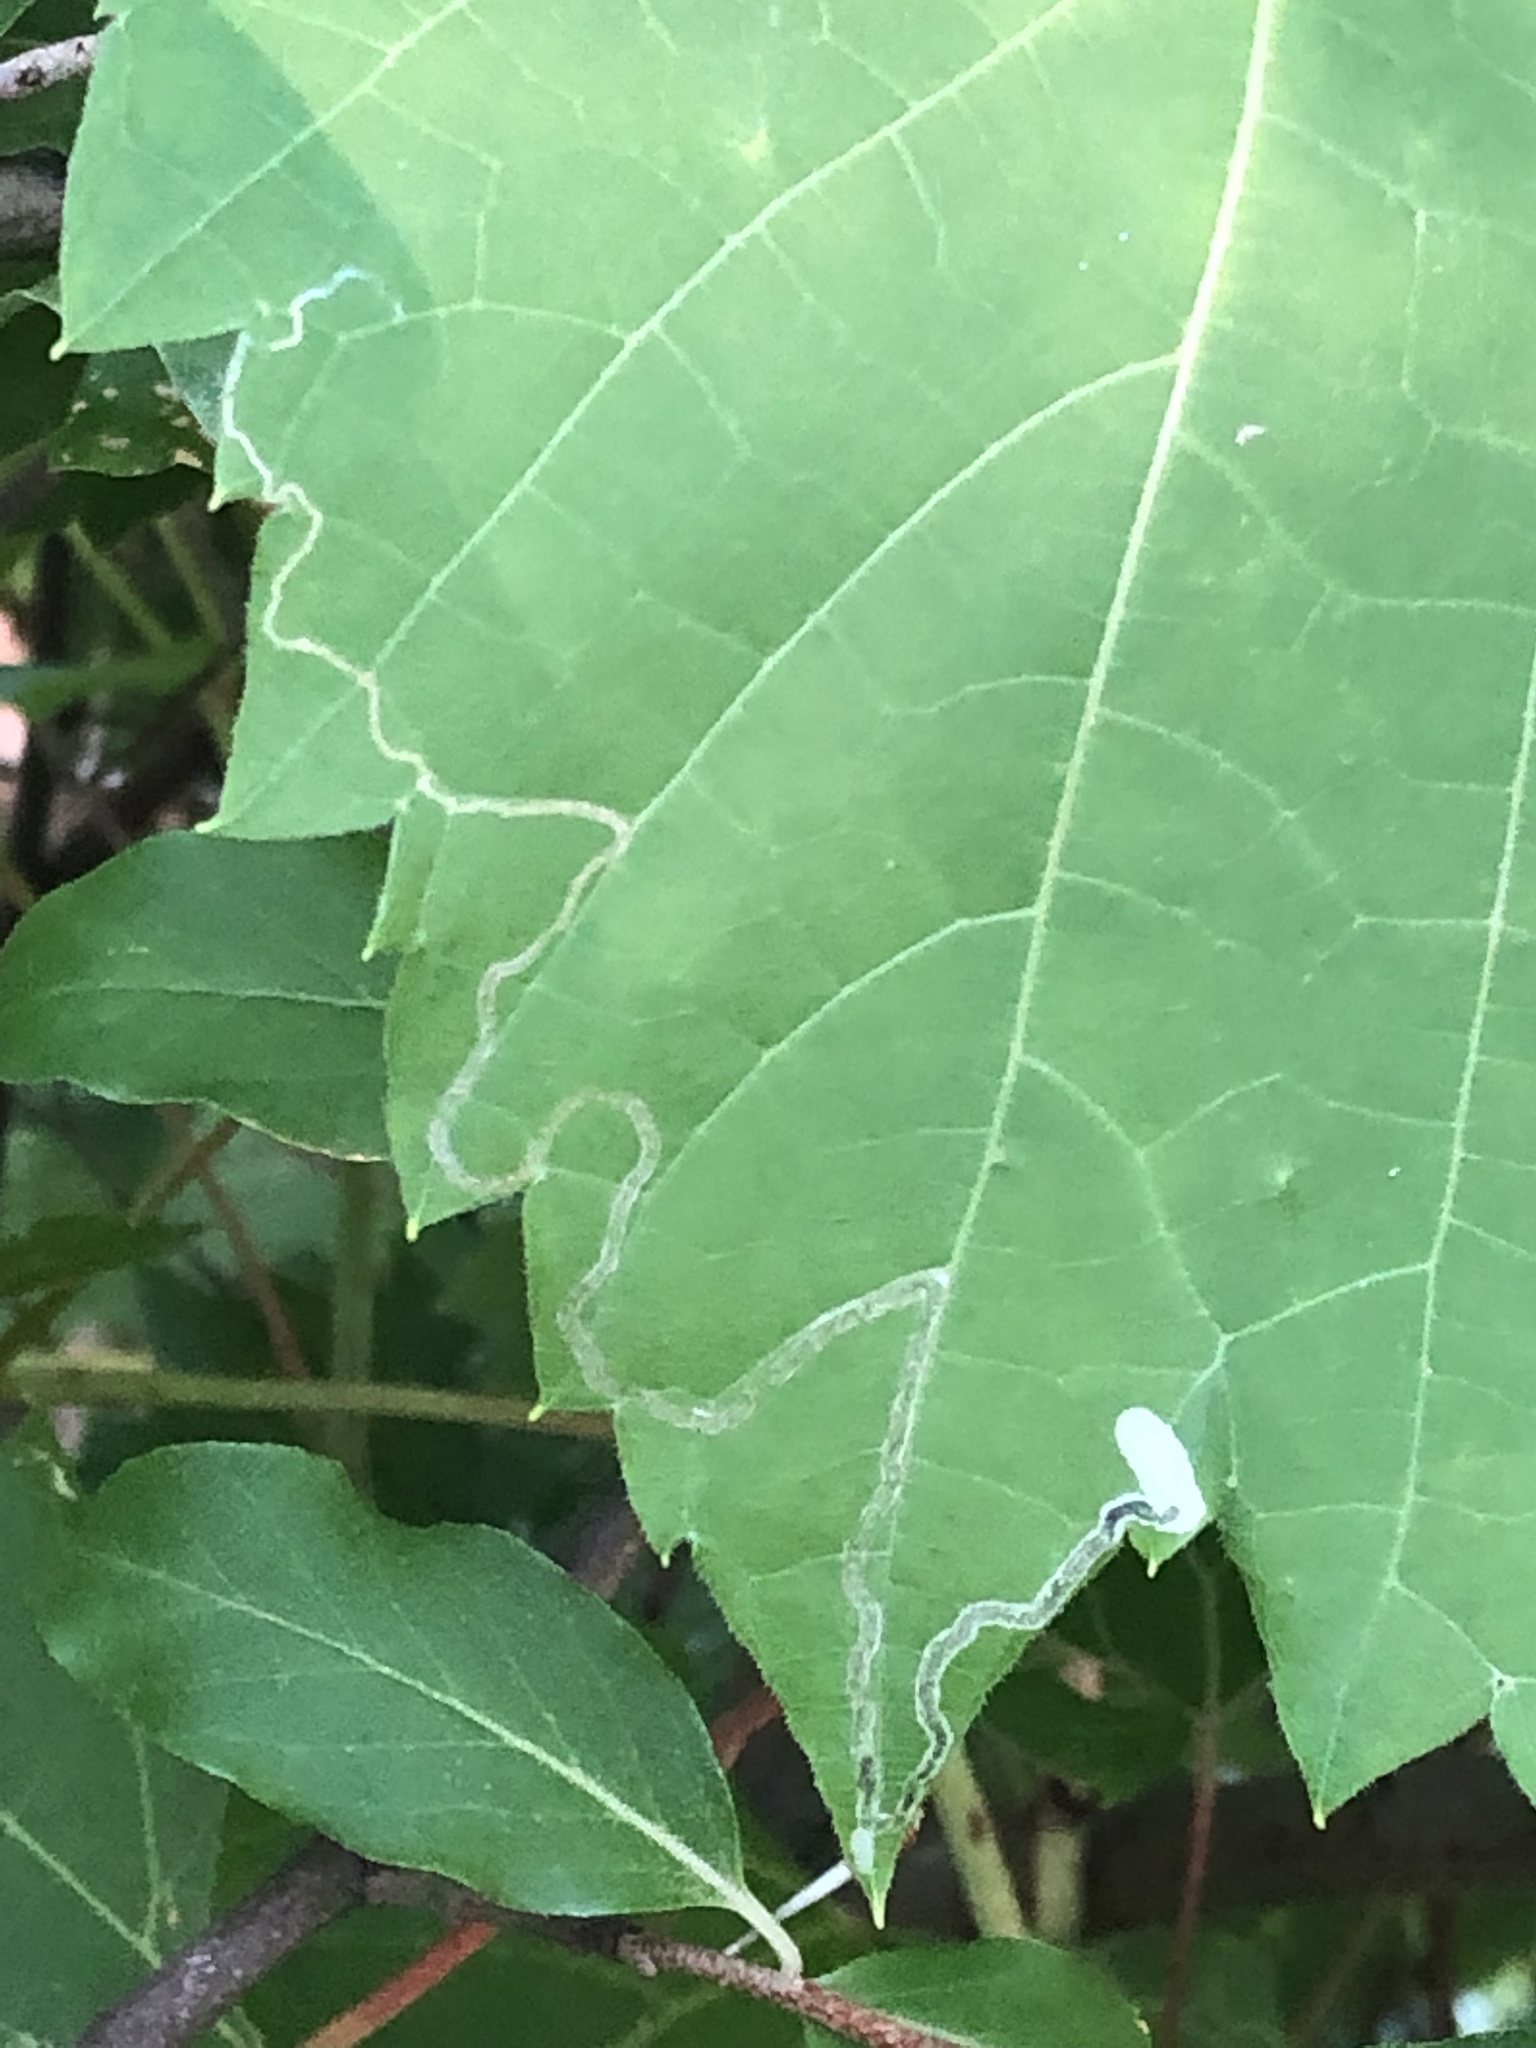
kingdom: Animalia
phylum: Arthropoda
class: Insecta
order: Lepidoptera
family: Gracillariidae
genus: Phyllocnistis
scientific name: Phyllocnistis vitifoliella
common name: Grape leaf-miner moth
